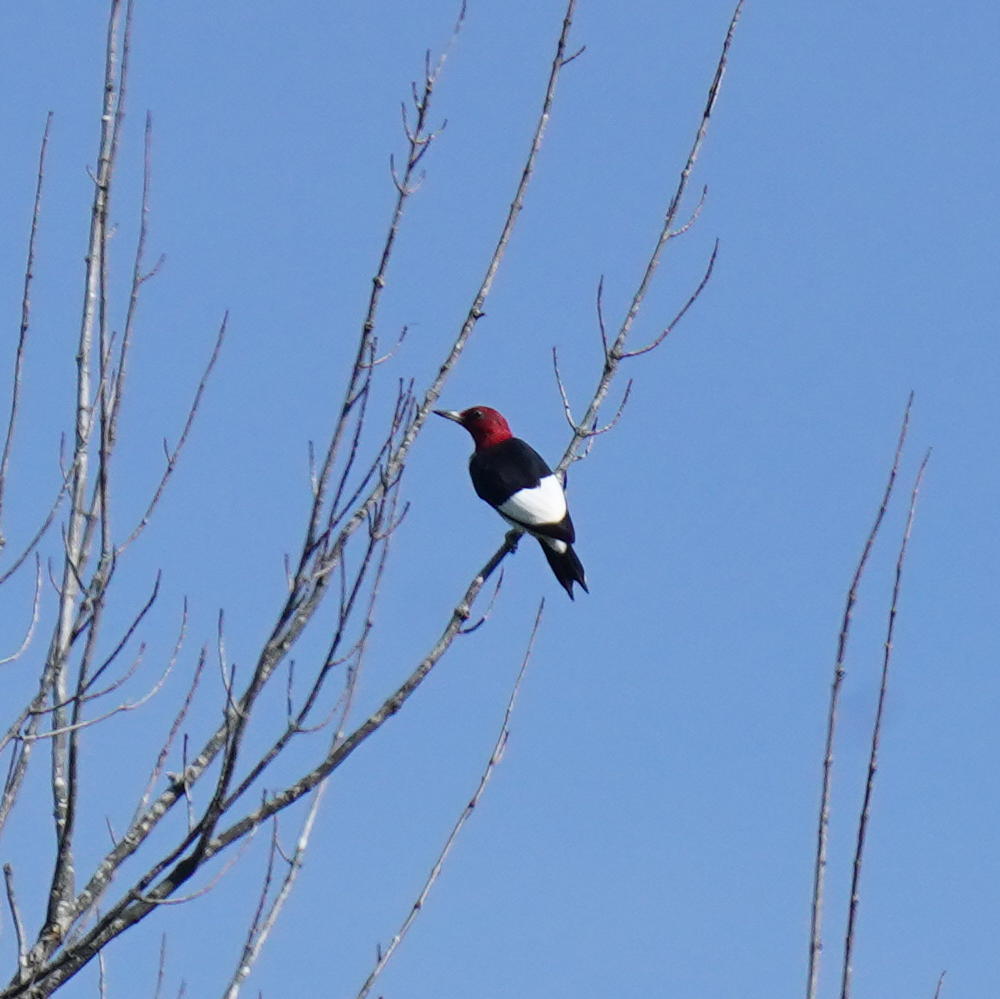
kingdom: Animalia
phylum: Chordata
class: Aves
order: Piciformes
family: Picidae
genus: Melanerpes
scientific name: Melanerpes erythrocephalus
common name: Red-headed woodpecker
